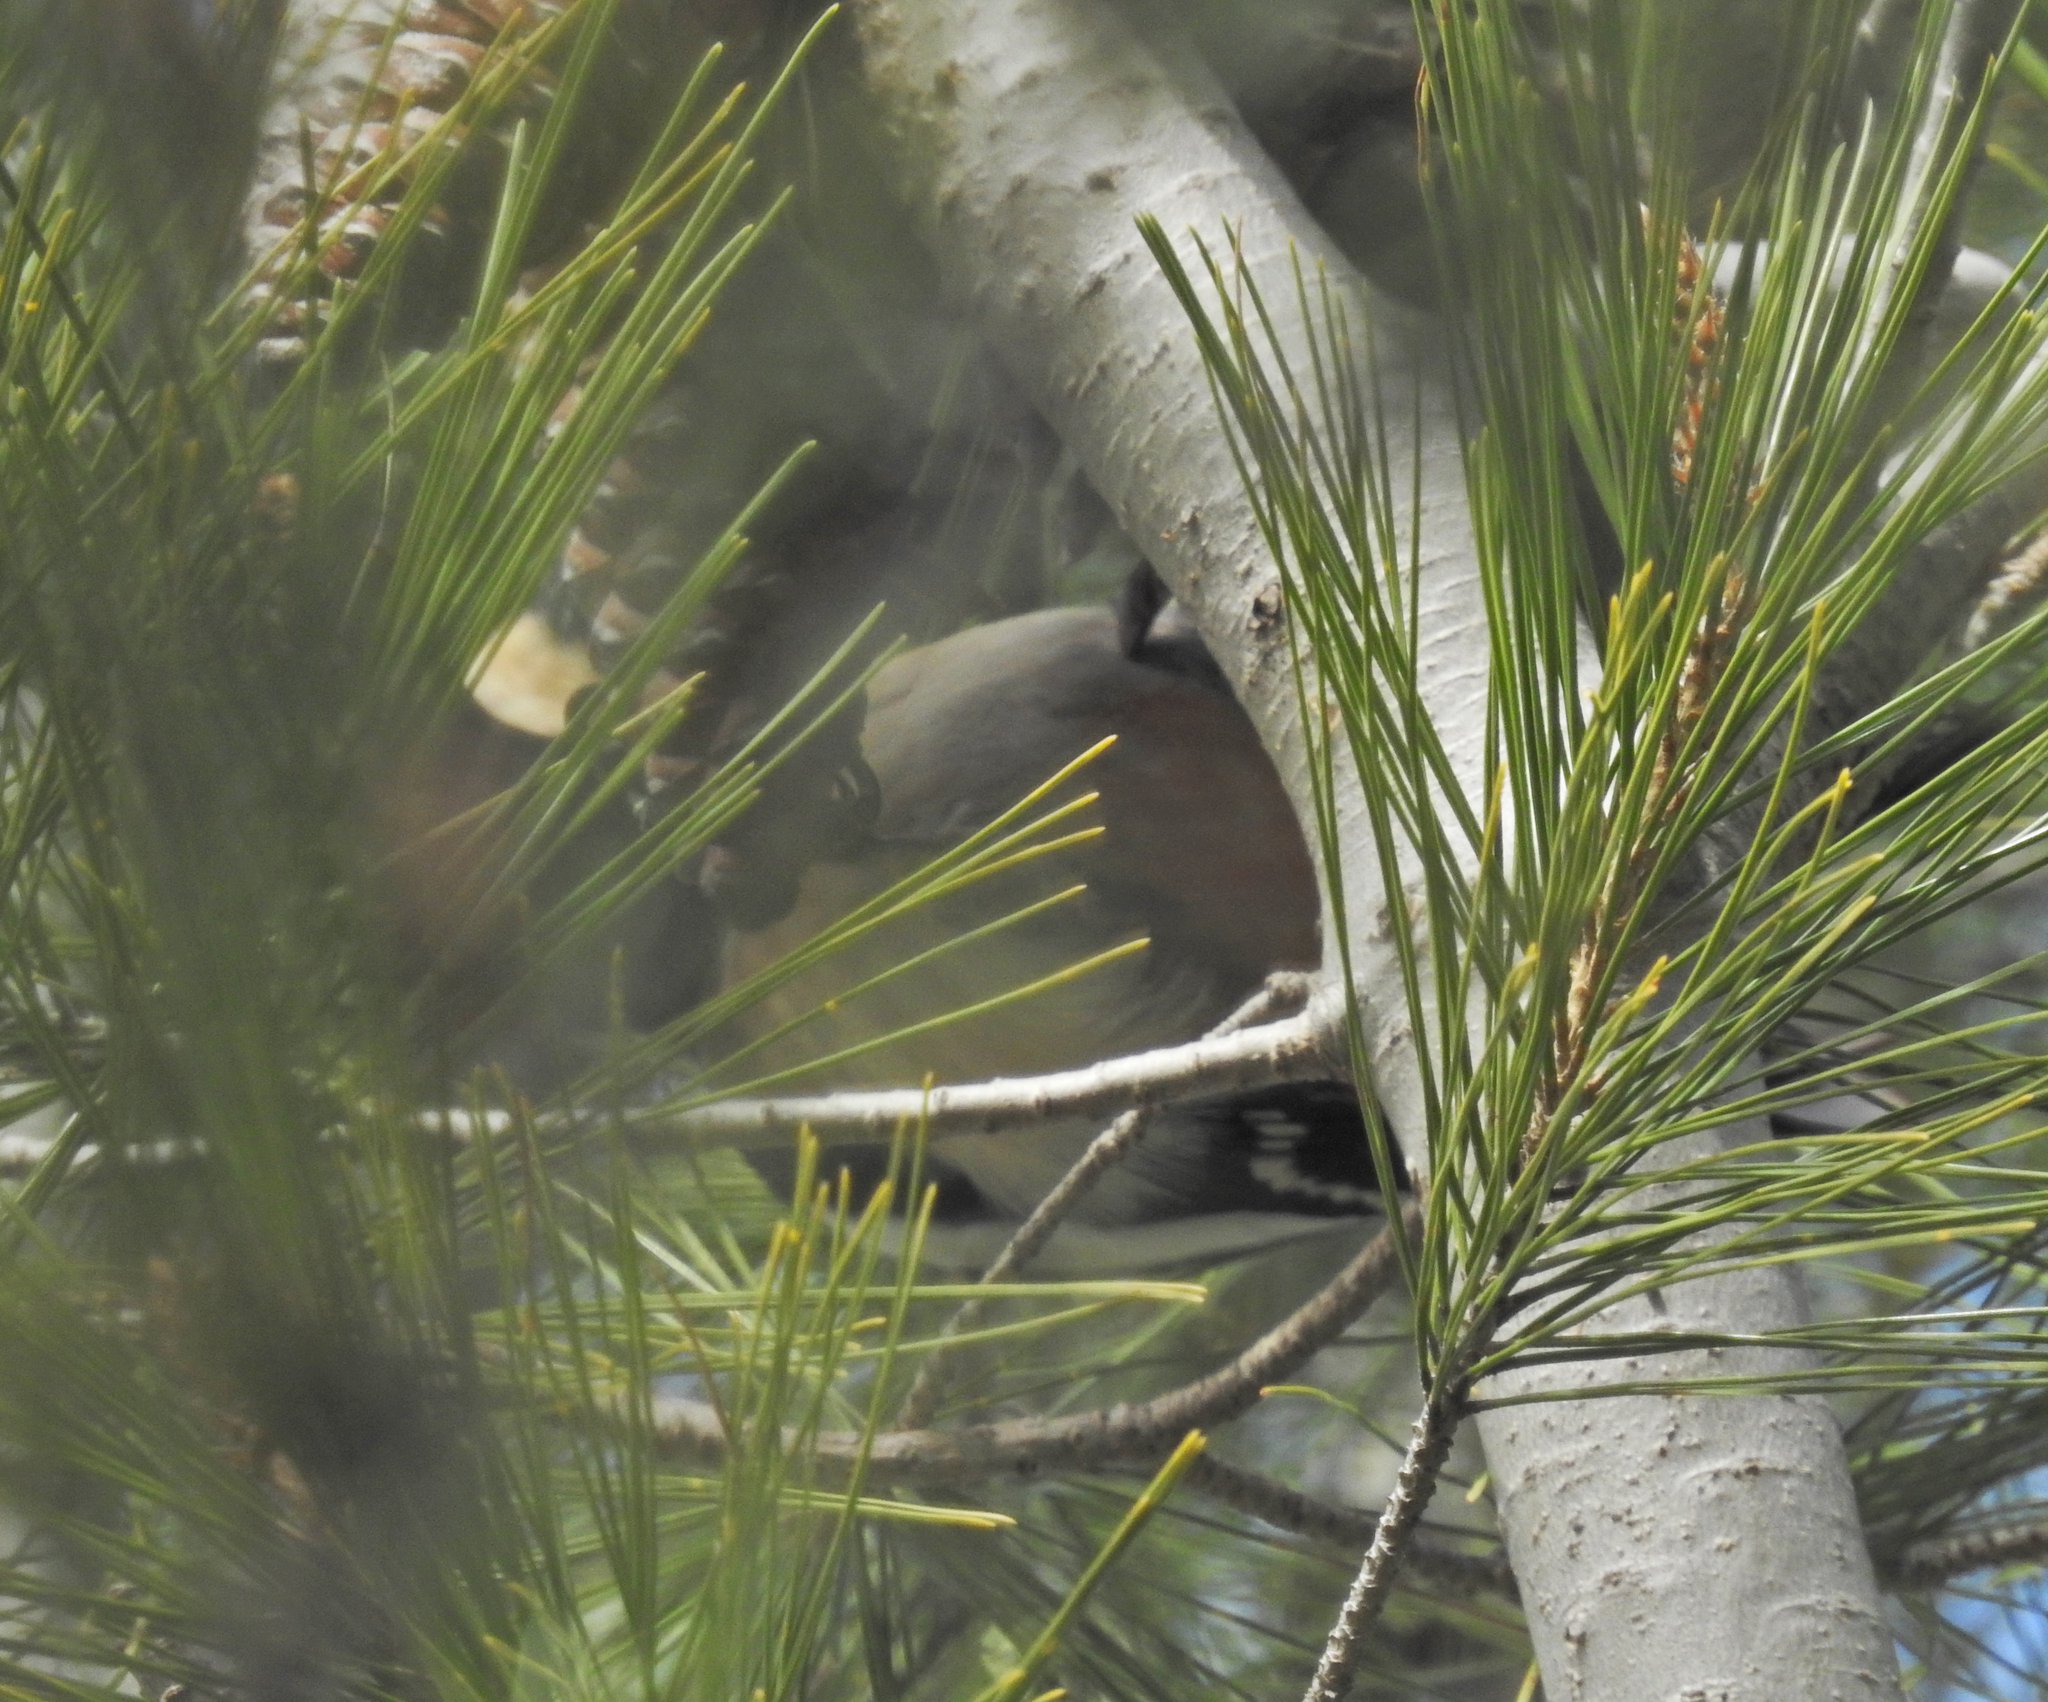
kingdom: Animalia
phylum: Chordata
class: Aves
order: Piciformes
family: Picidae
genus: Dendrocopos
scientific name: Dendrocopos major
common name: Great spotted woodpecker
